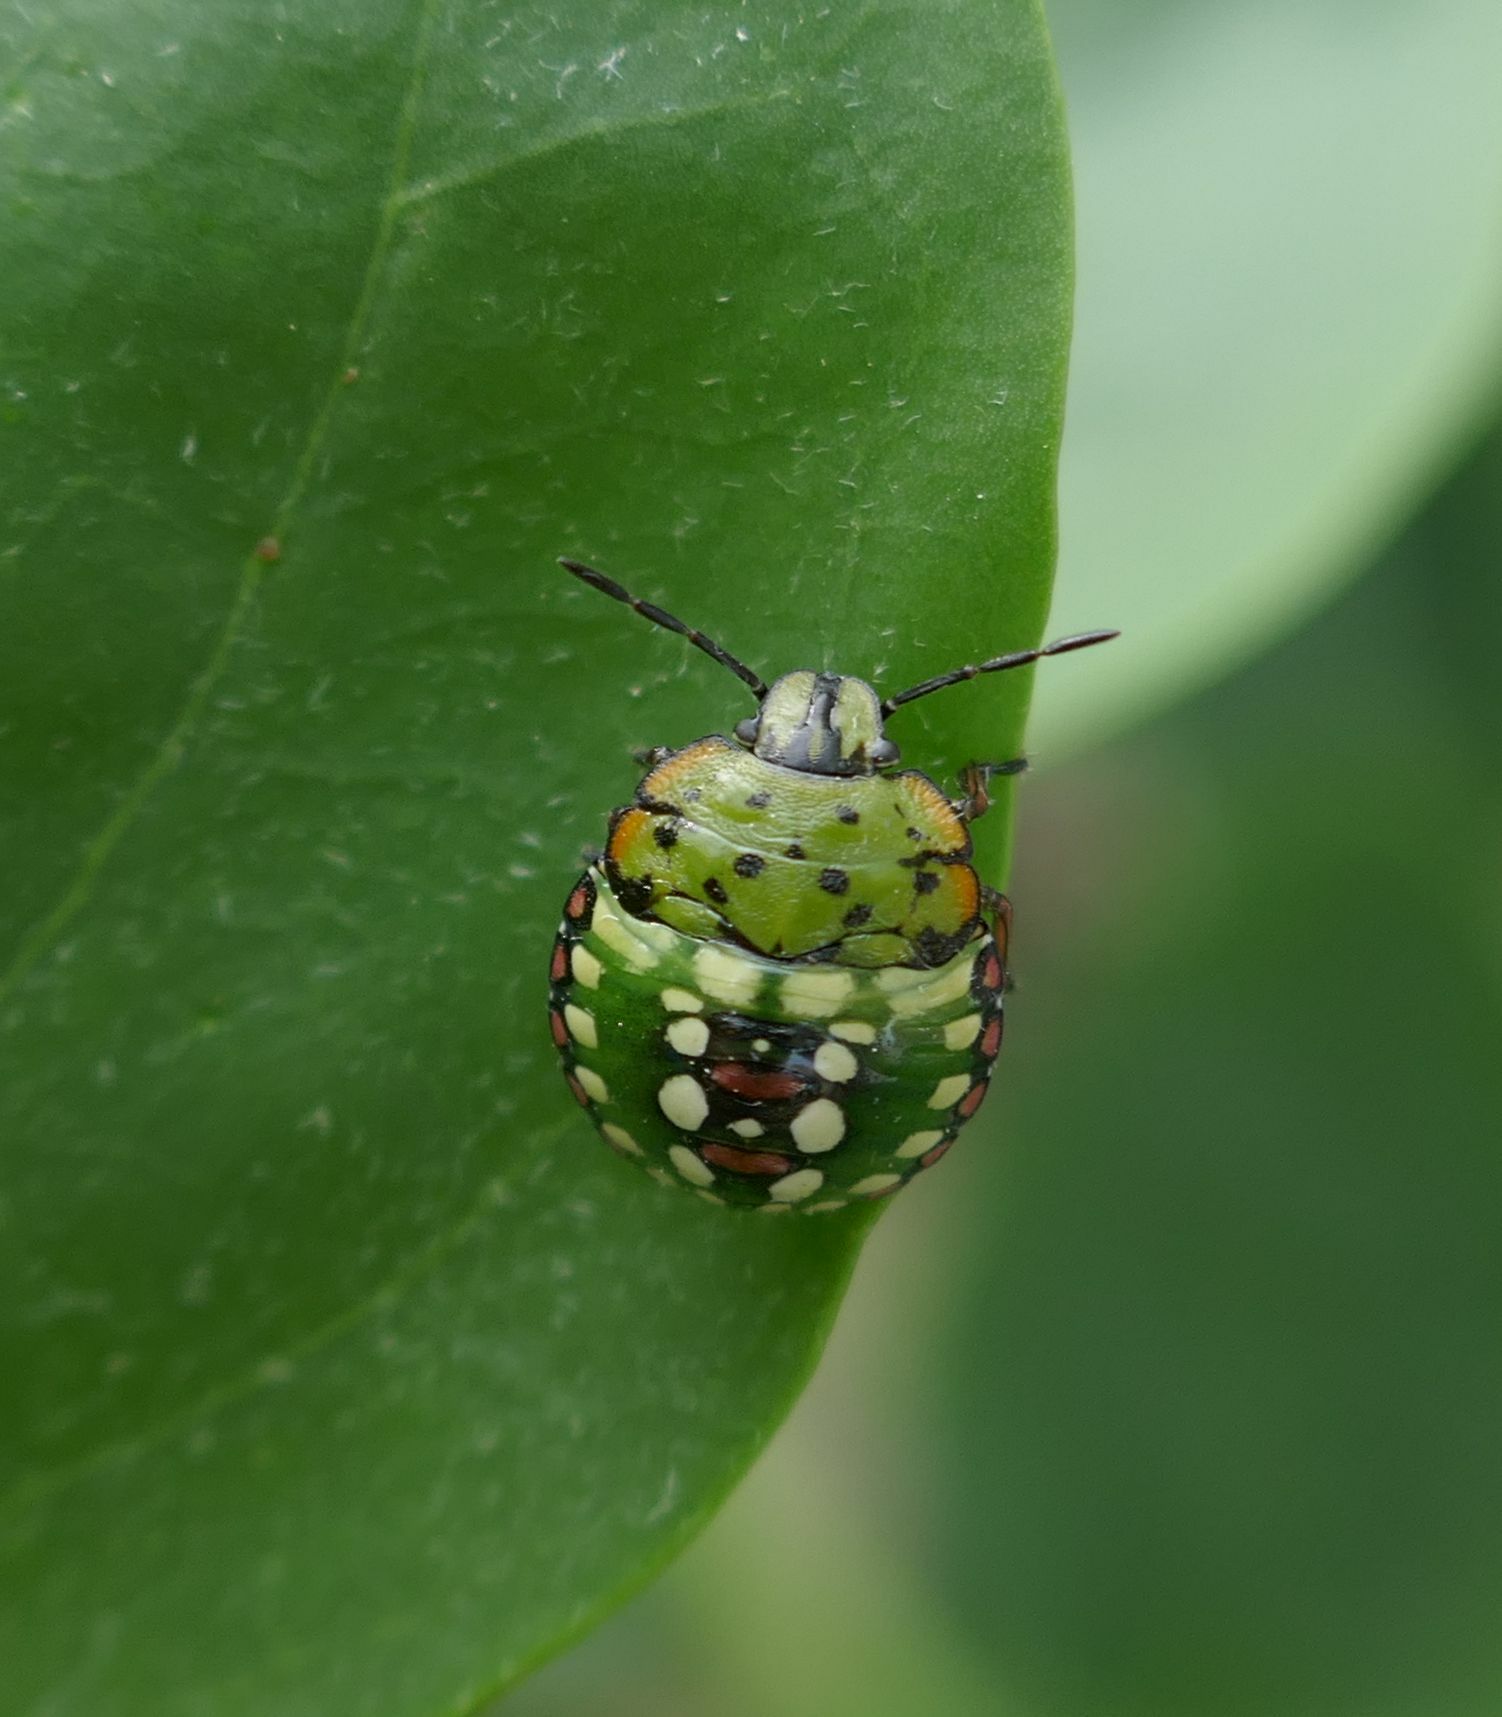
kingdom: Animalia
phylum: Arthropoda
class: Insecta
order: Hemiptera
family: Pentatomidae
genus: Nezara
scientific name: Nezara viridula
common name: Southern green stink bug
